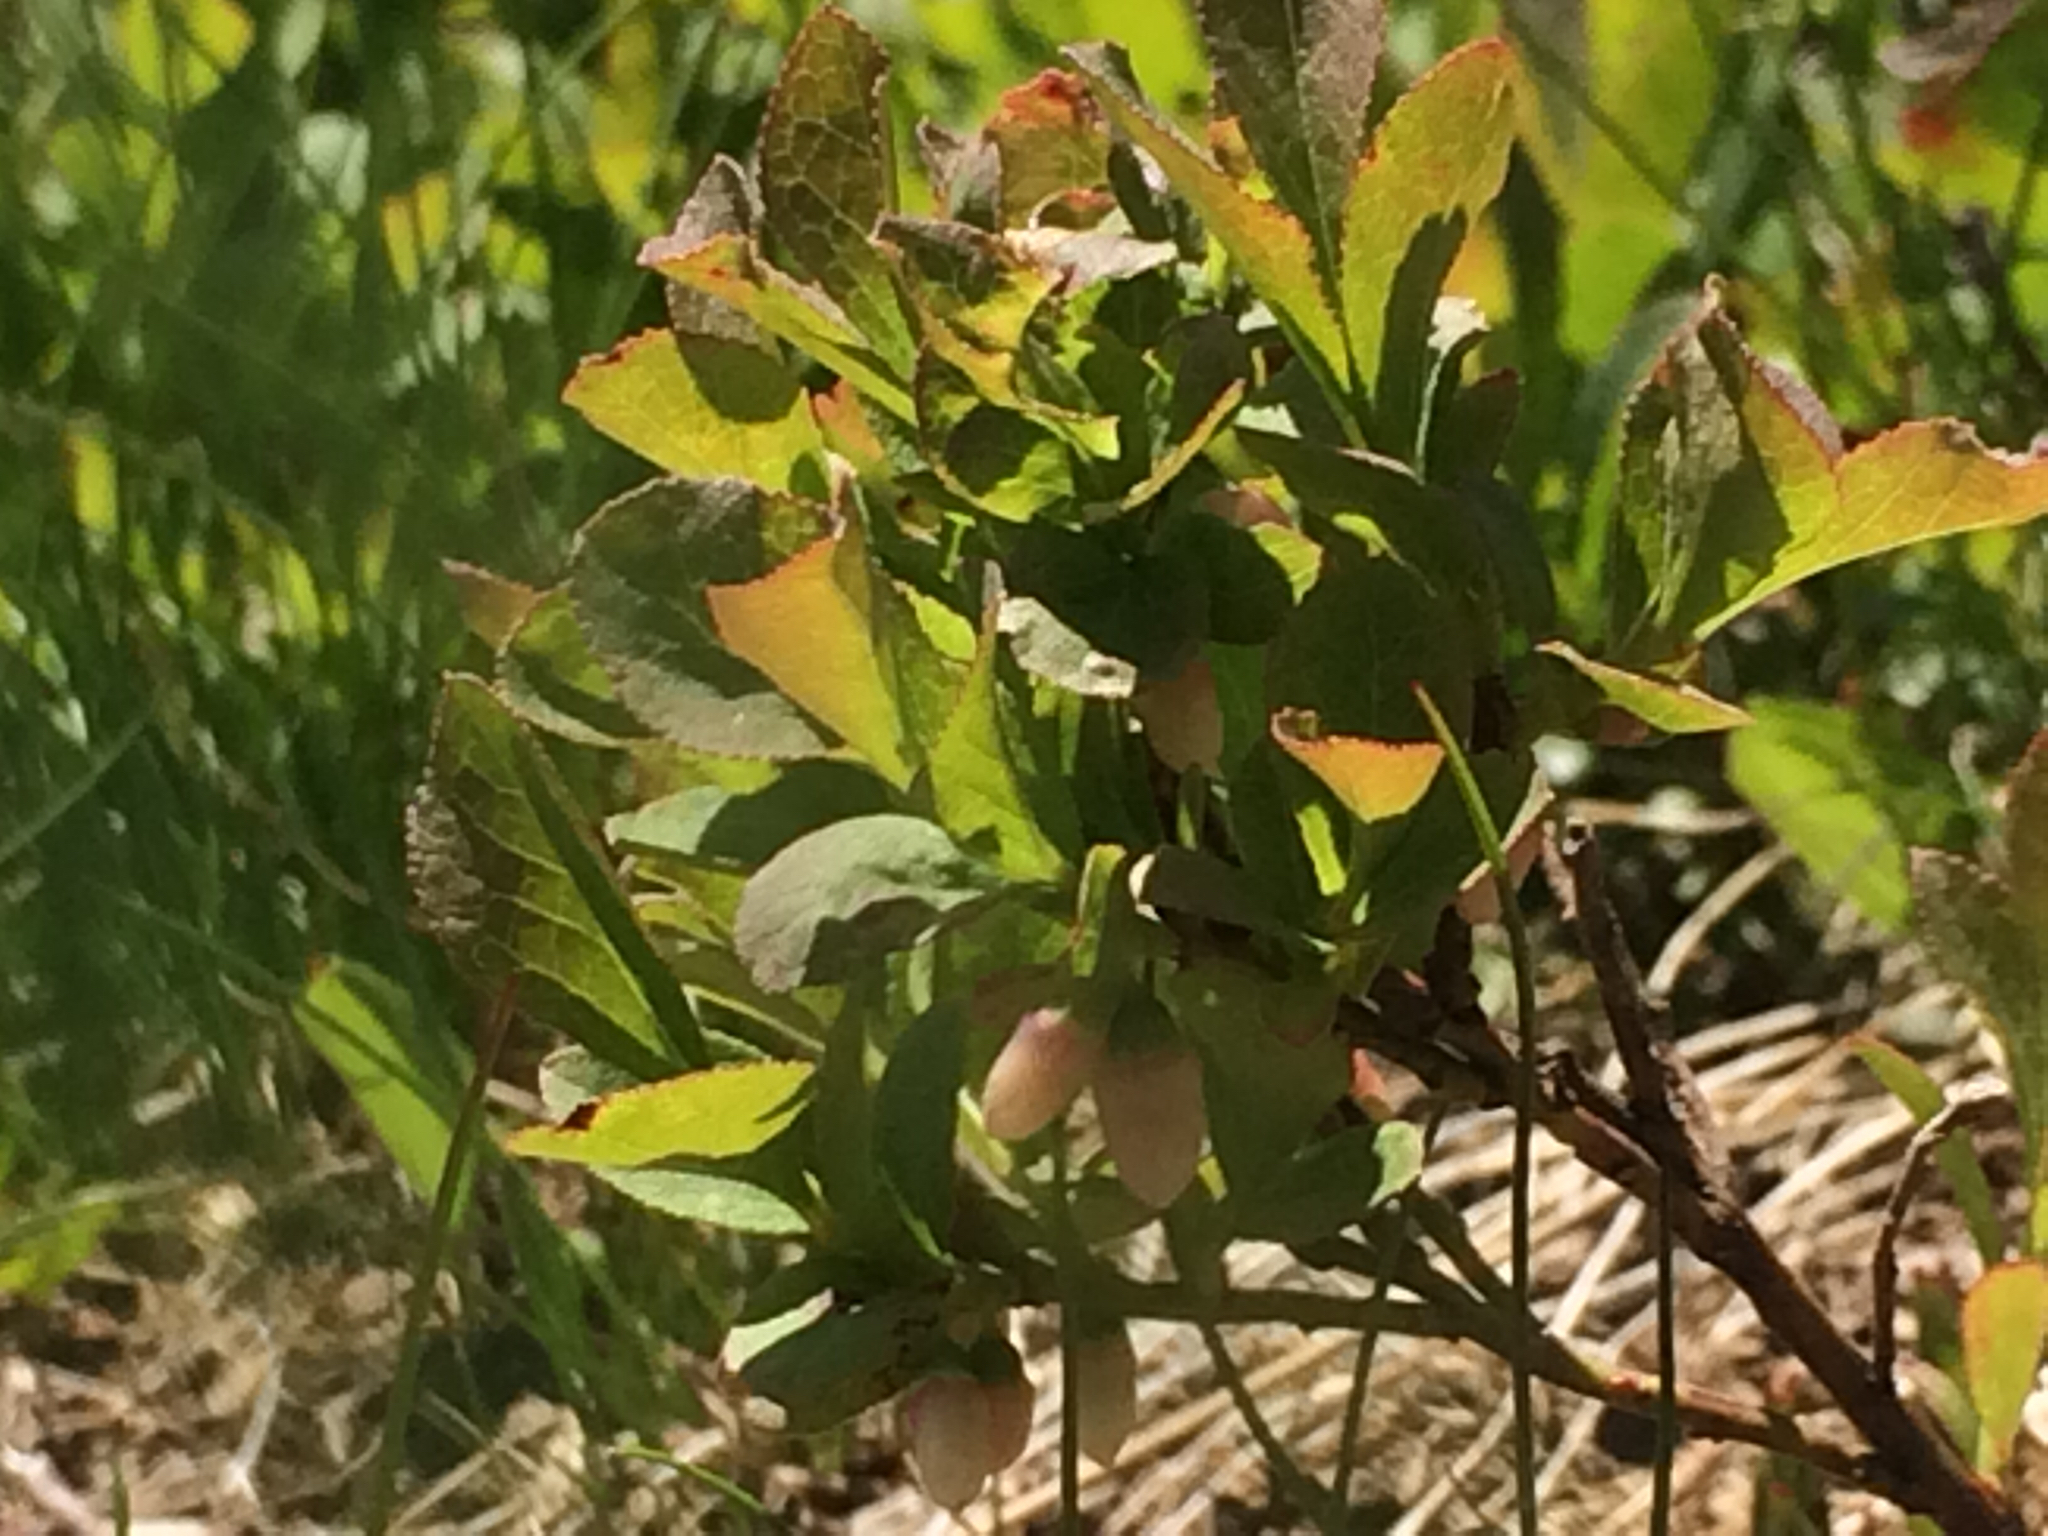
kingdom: Plantae
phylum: Tracheophyta
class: Magnoliopsida
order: Ericales
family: Ericaceae
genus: Vaccinium
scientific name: Vaccinium cespitosum
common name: Dwarf bilberry
